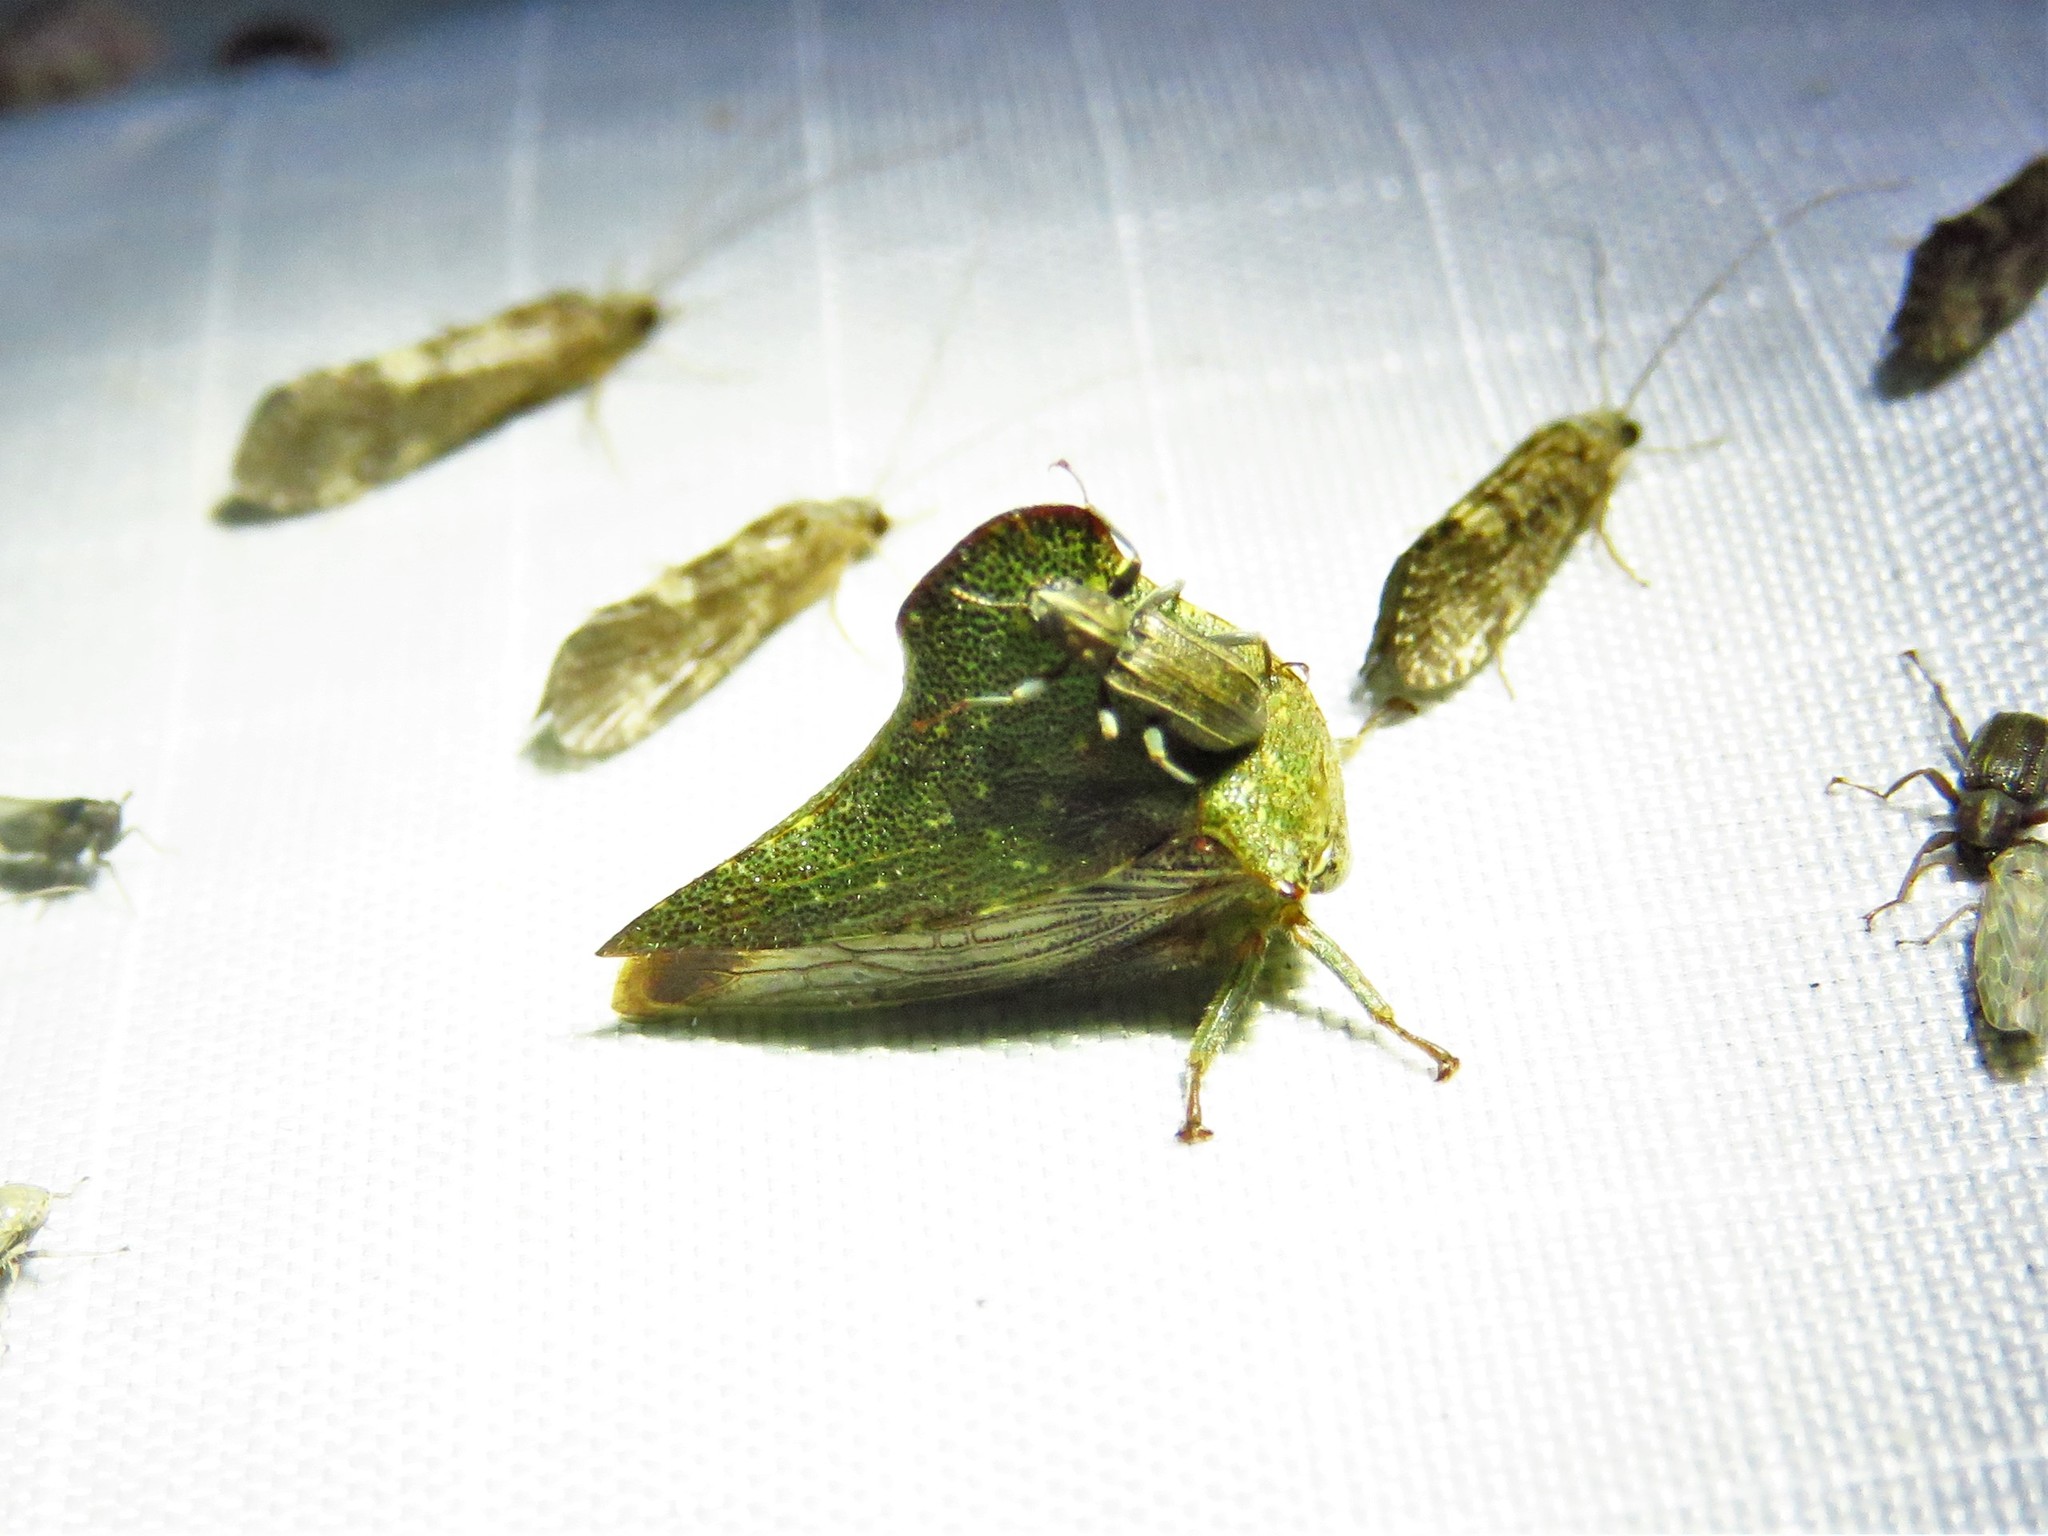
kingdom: Animalia
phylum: Arthropoda
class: Insecta
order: Hemiptera
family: Membracidae
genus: Telamona
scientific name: Telamona monticola
